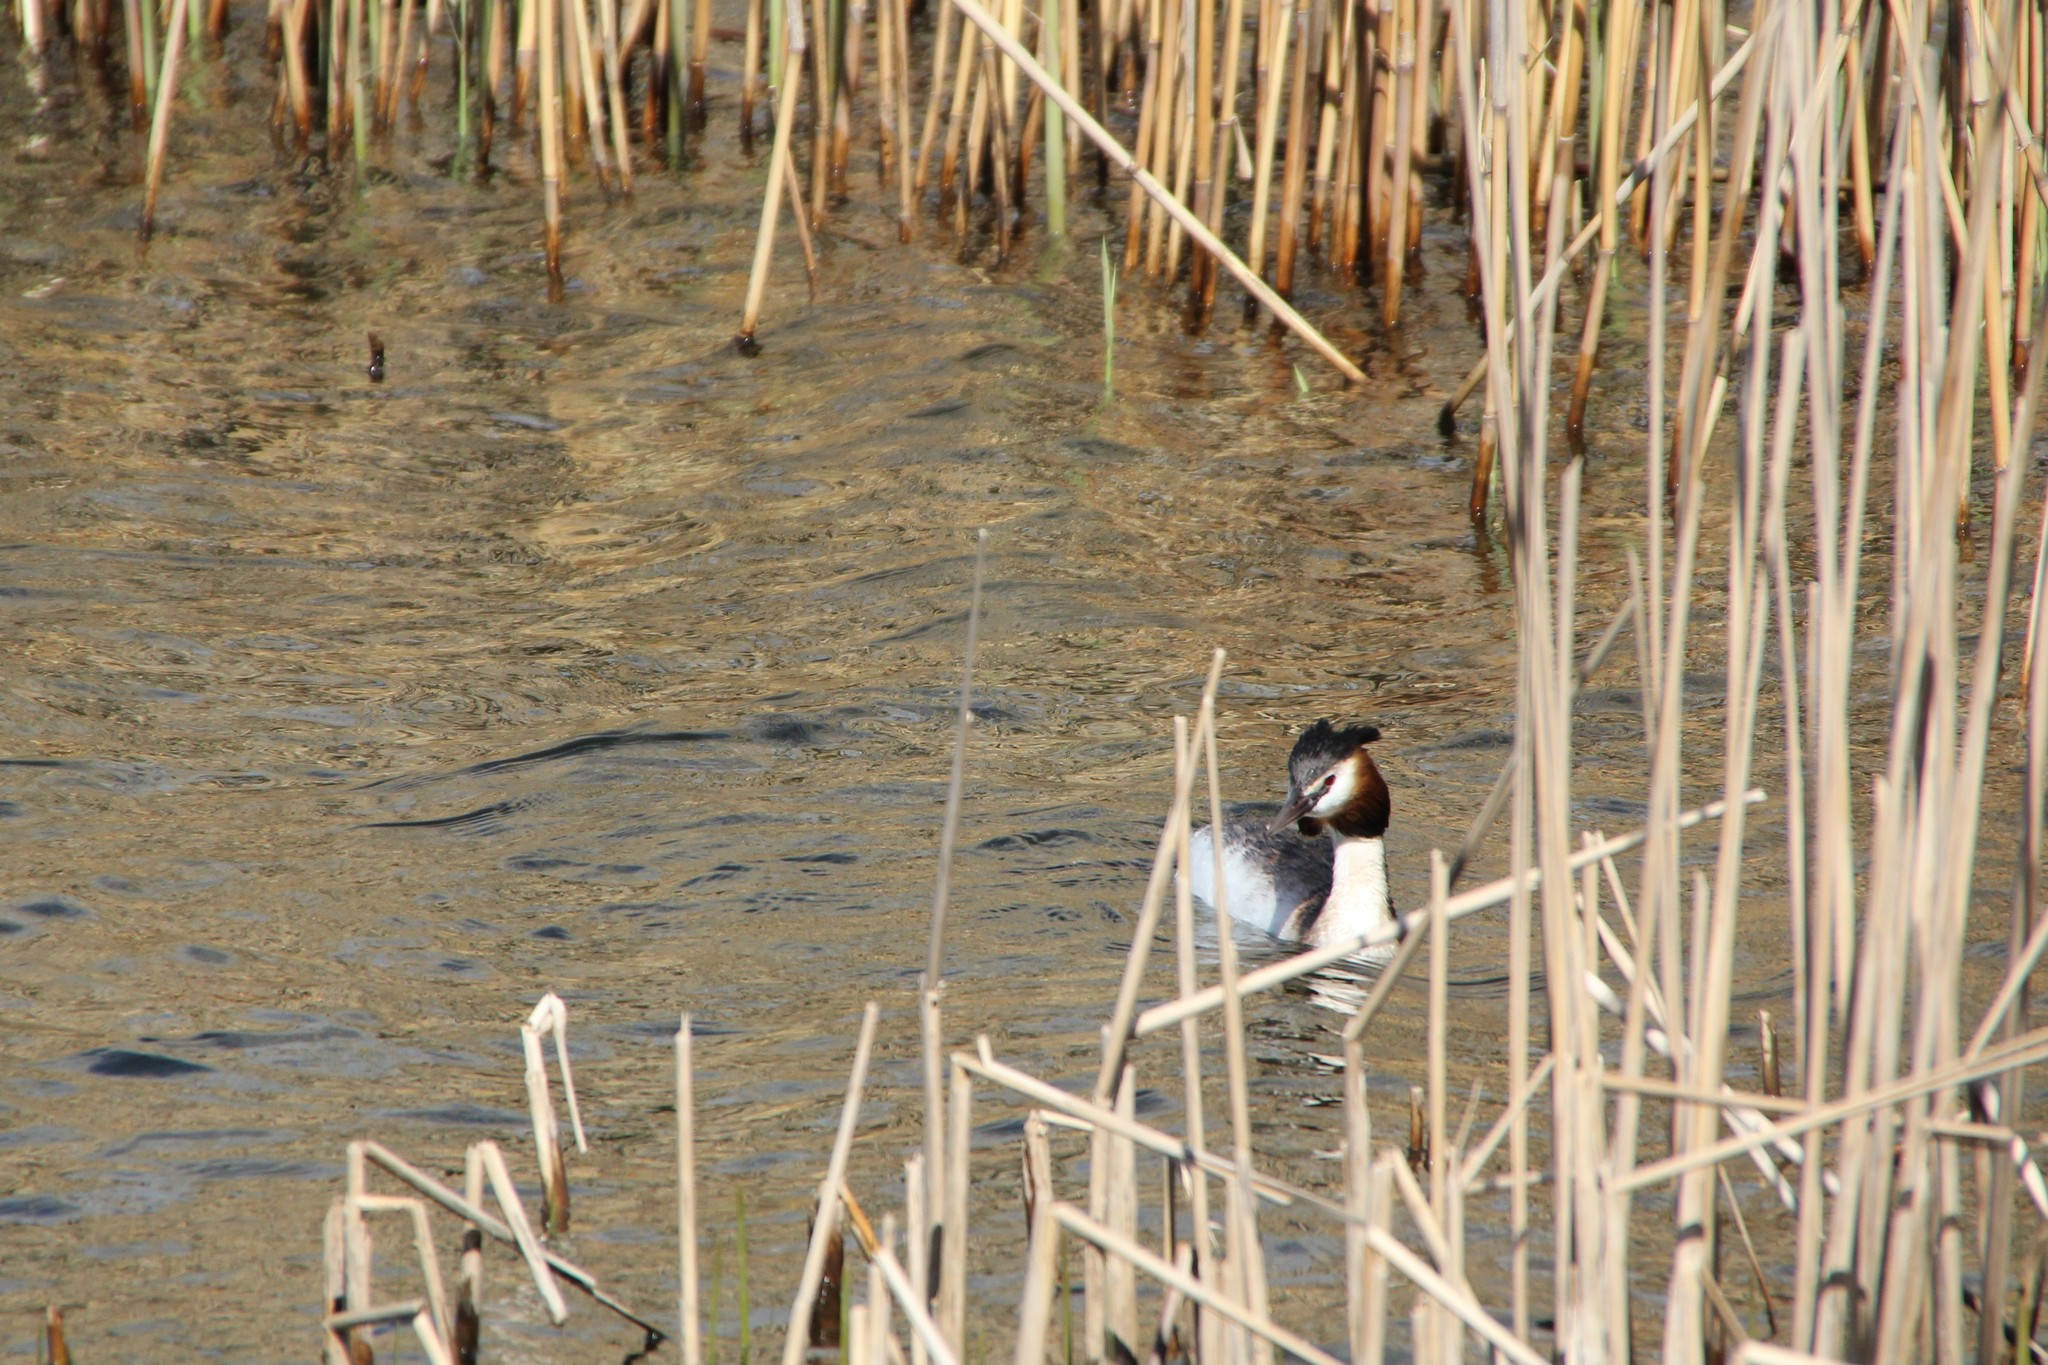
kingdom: Animalia
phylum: Chordata
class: Aves
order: Podicipediformes
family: Podicipedidae
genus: Podiceps
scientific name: Podiceps cristatus
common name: Great crested grebe
